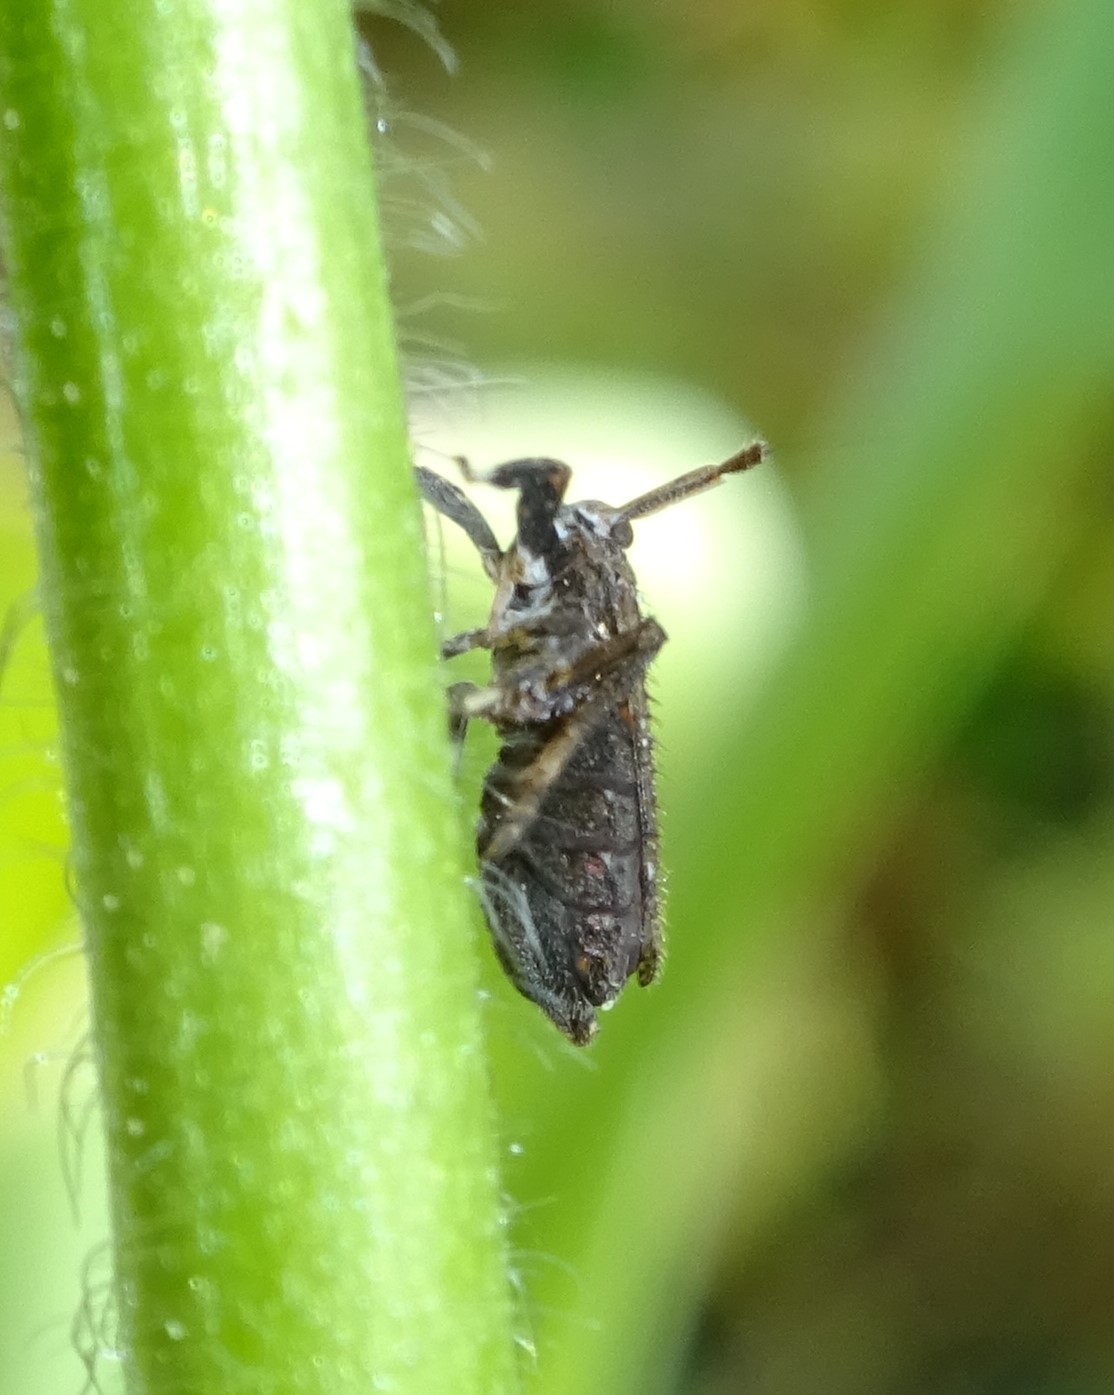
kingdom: Animalia
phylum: Arthropoda
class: Insecta
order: Hemiptera
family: Delphacidae
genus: Asiraca
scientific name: Asiraca clavicornis
